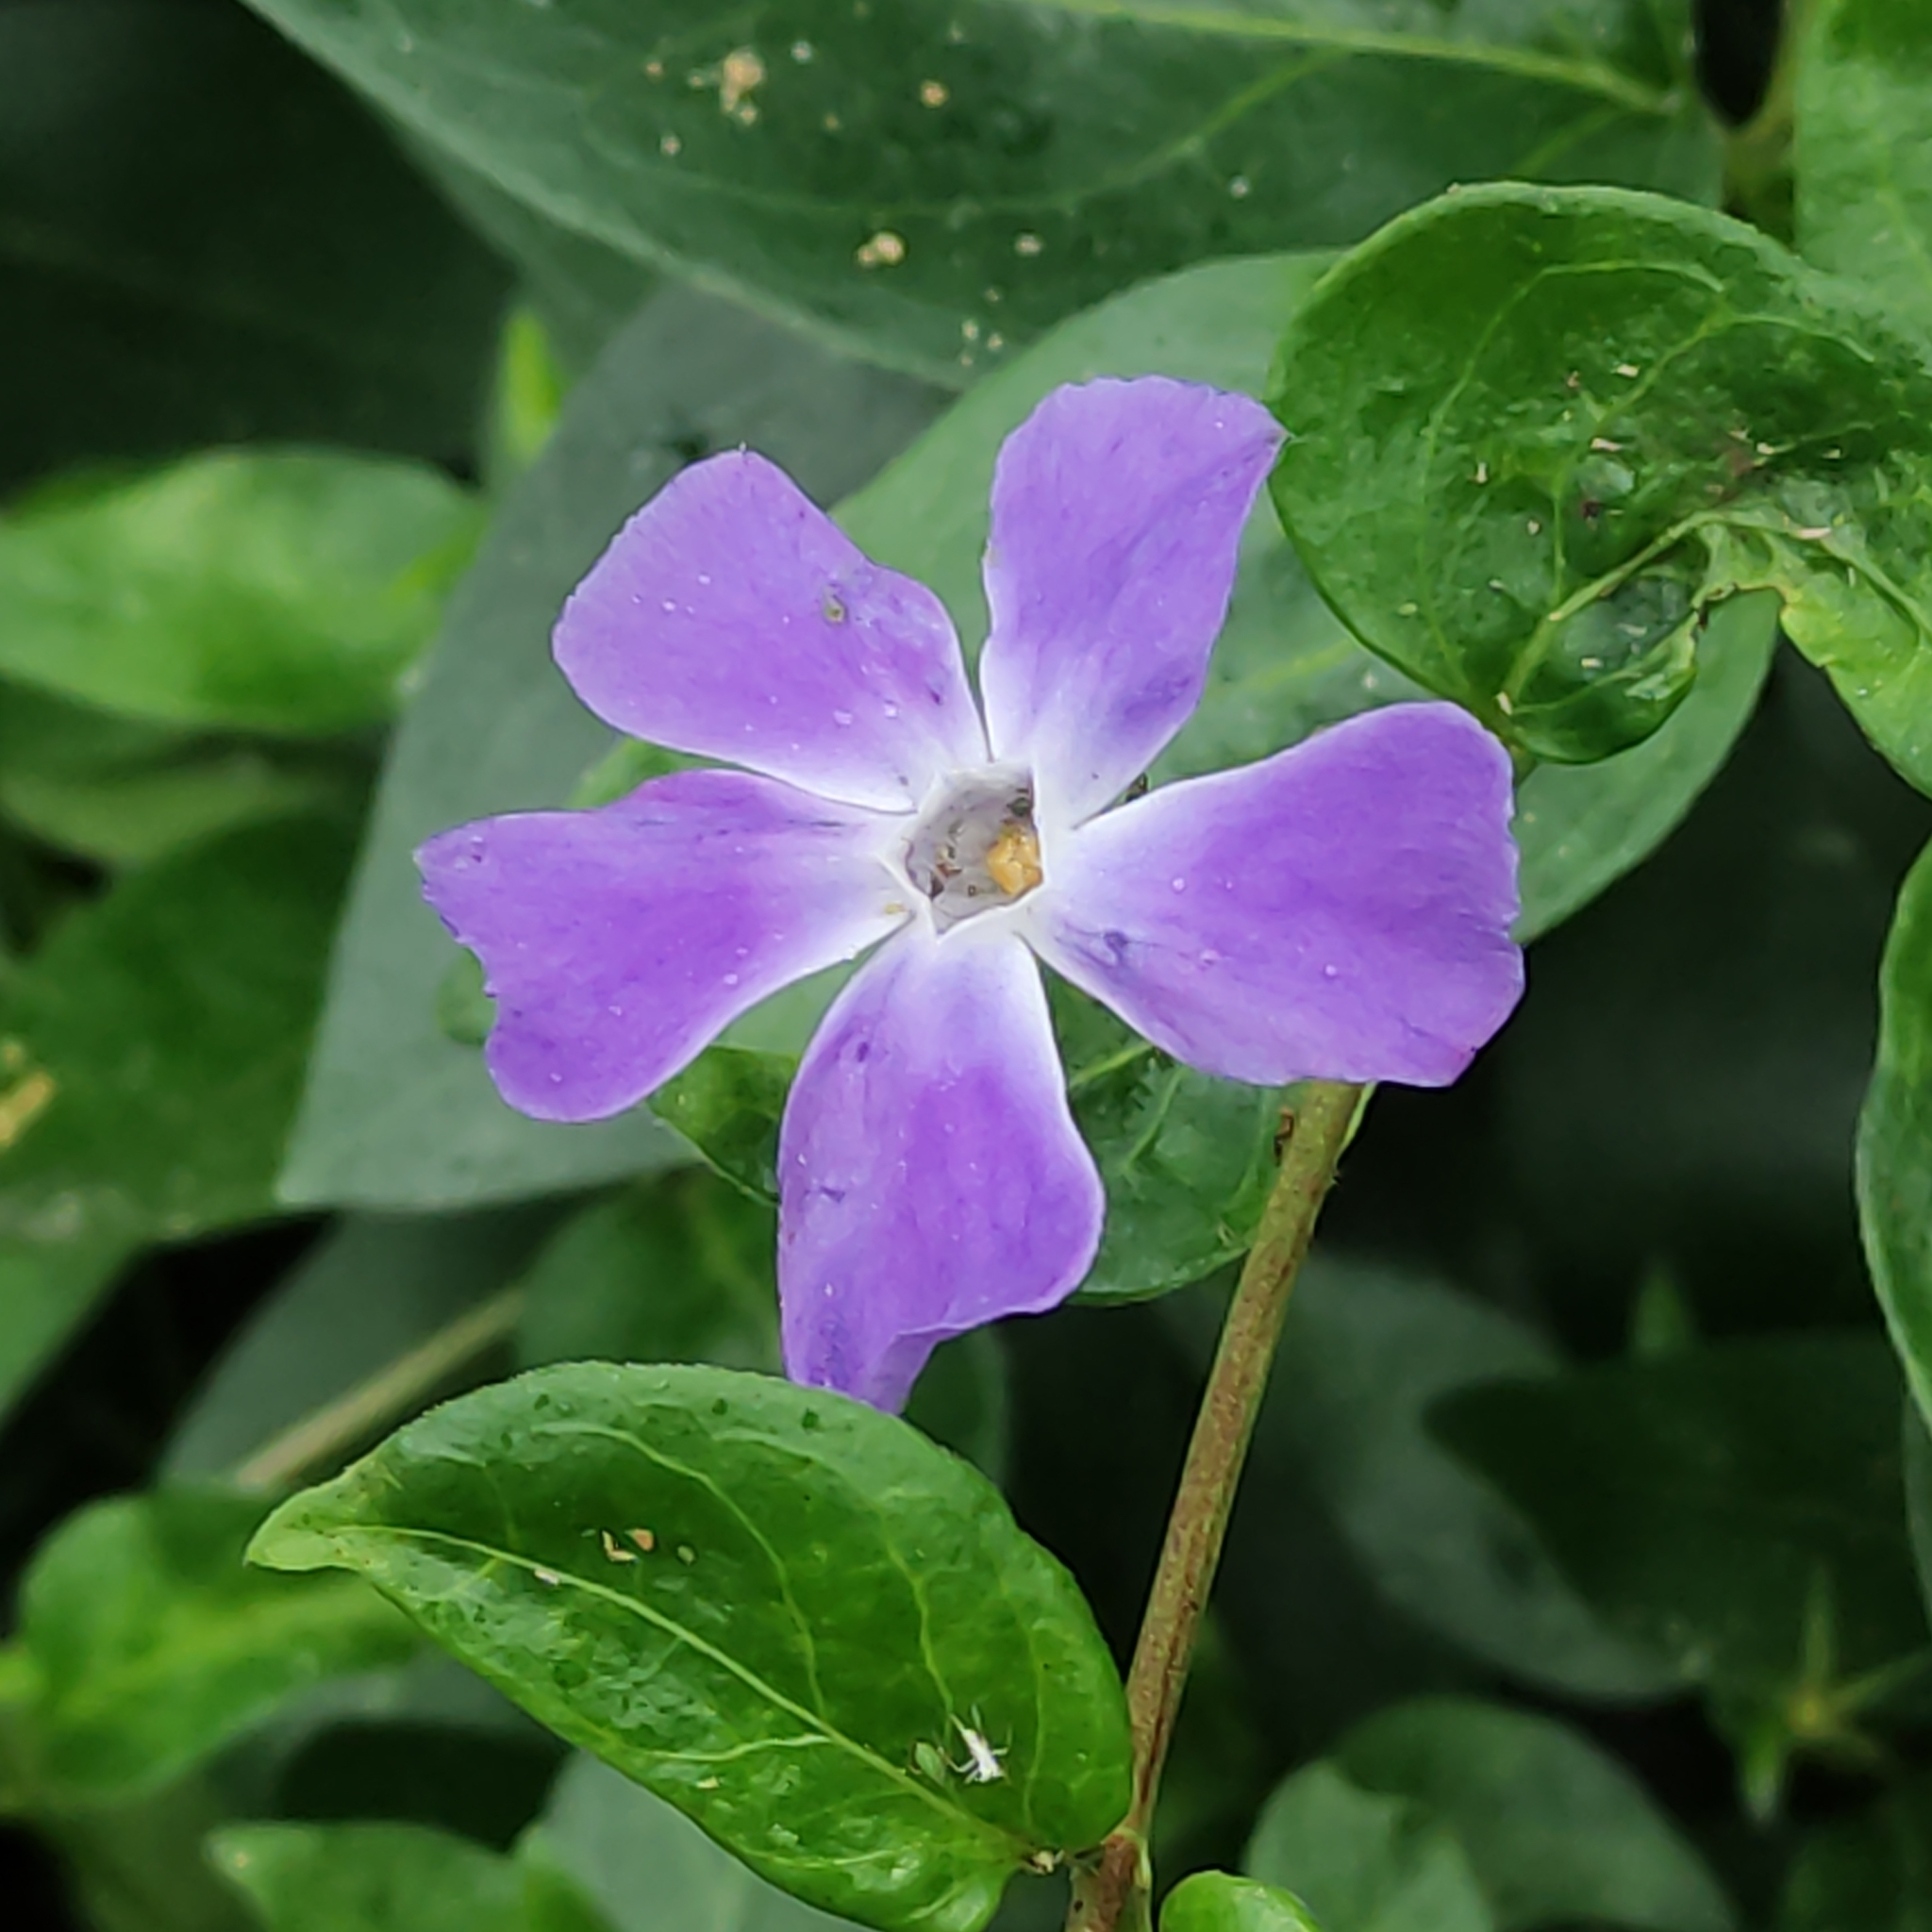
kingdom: Plantae
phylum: Tracheophyta
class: Magnoliopsida
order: Gentianales
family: Apocynaceae
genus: Vinca
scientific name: Vinca major
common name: Greater periwinkle
